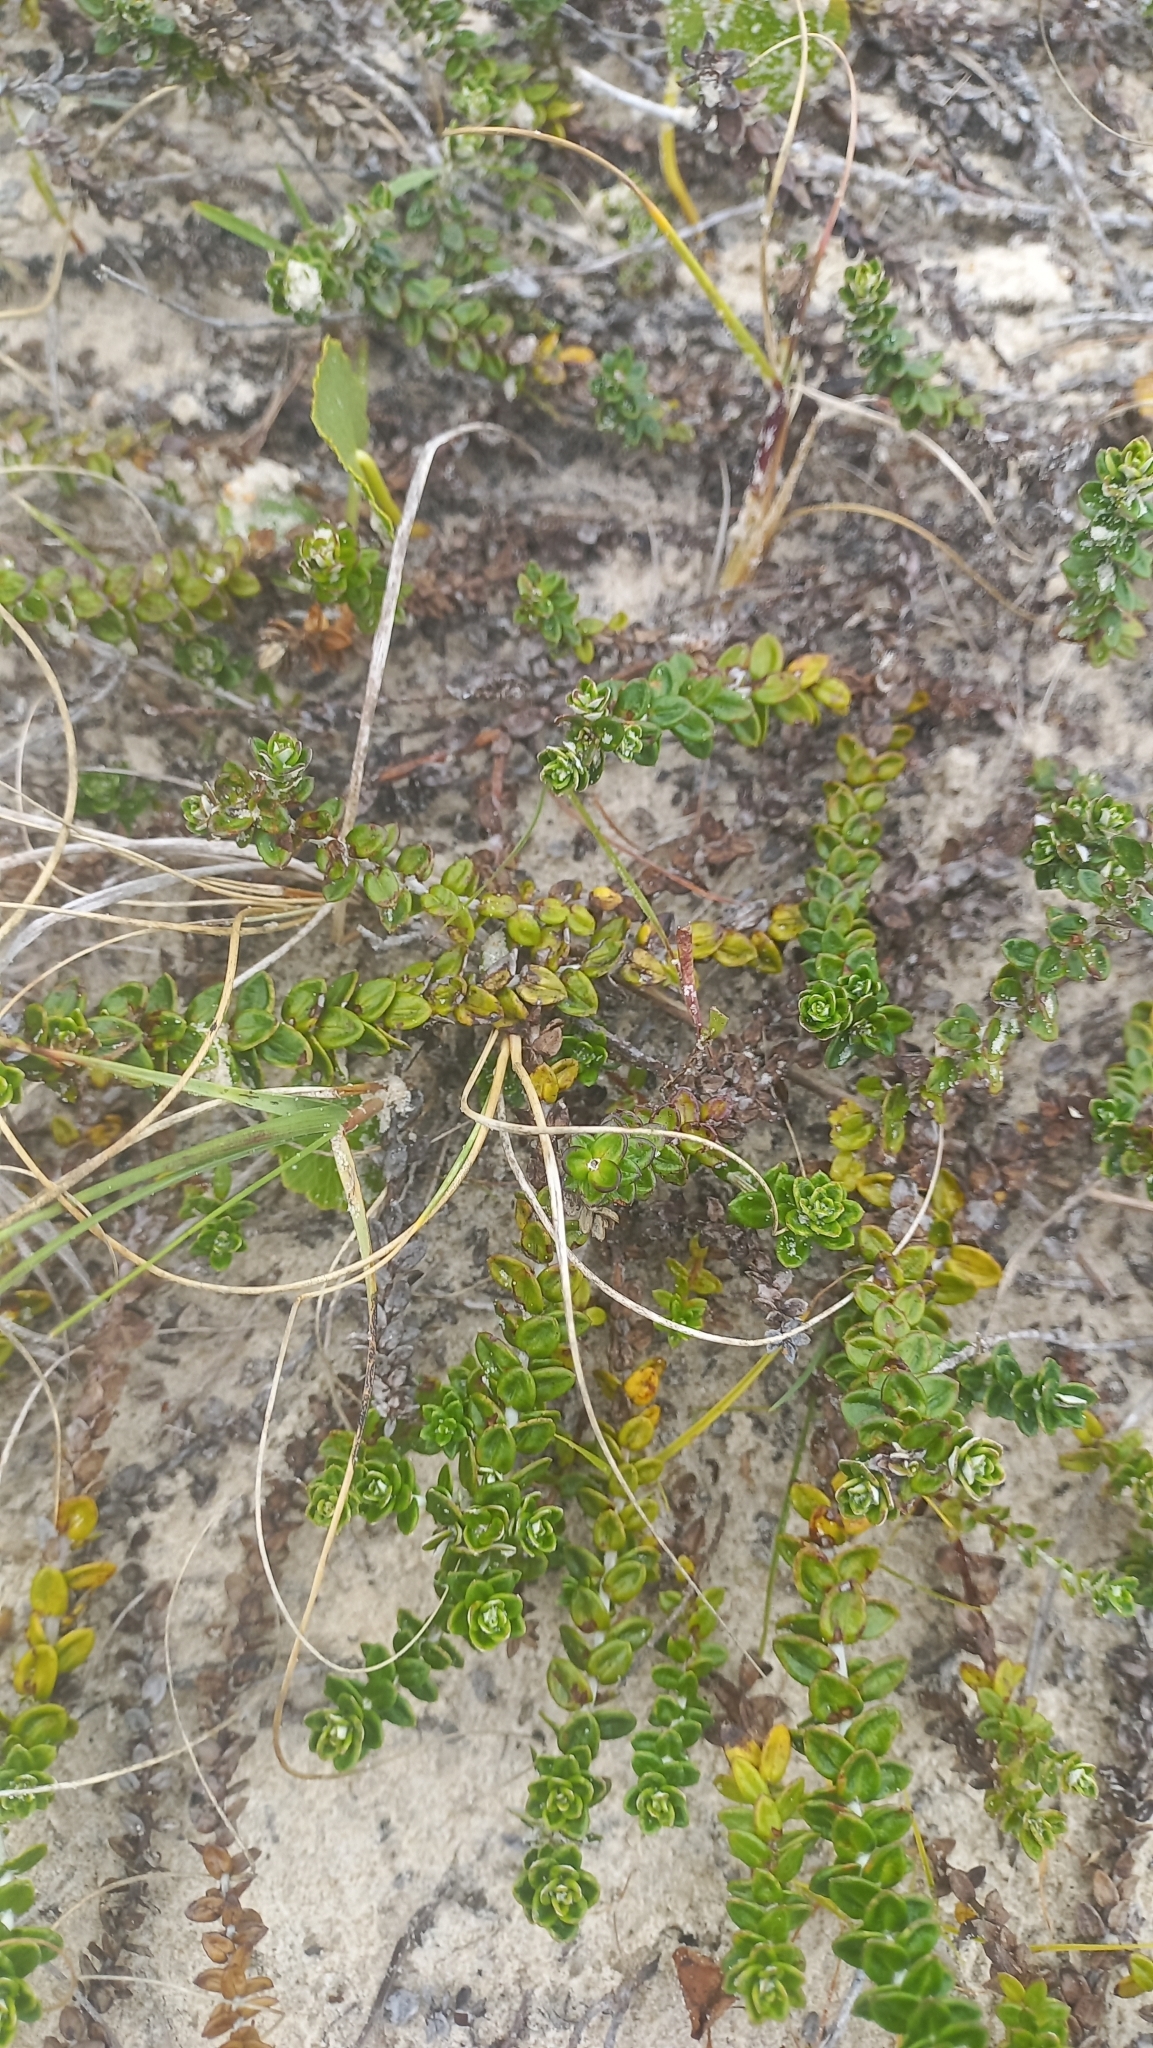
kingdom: Plantae
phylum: Tracheophyta
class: Magnoliopsida
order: Asterales
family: Asteraceae
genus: Baccharis
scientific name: Baccharis gnaphalioides
